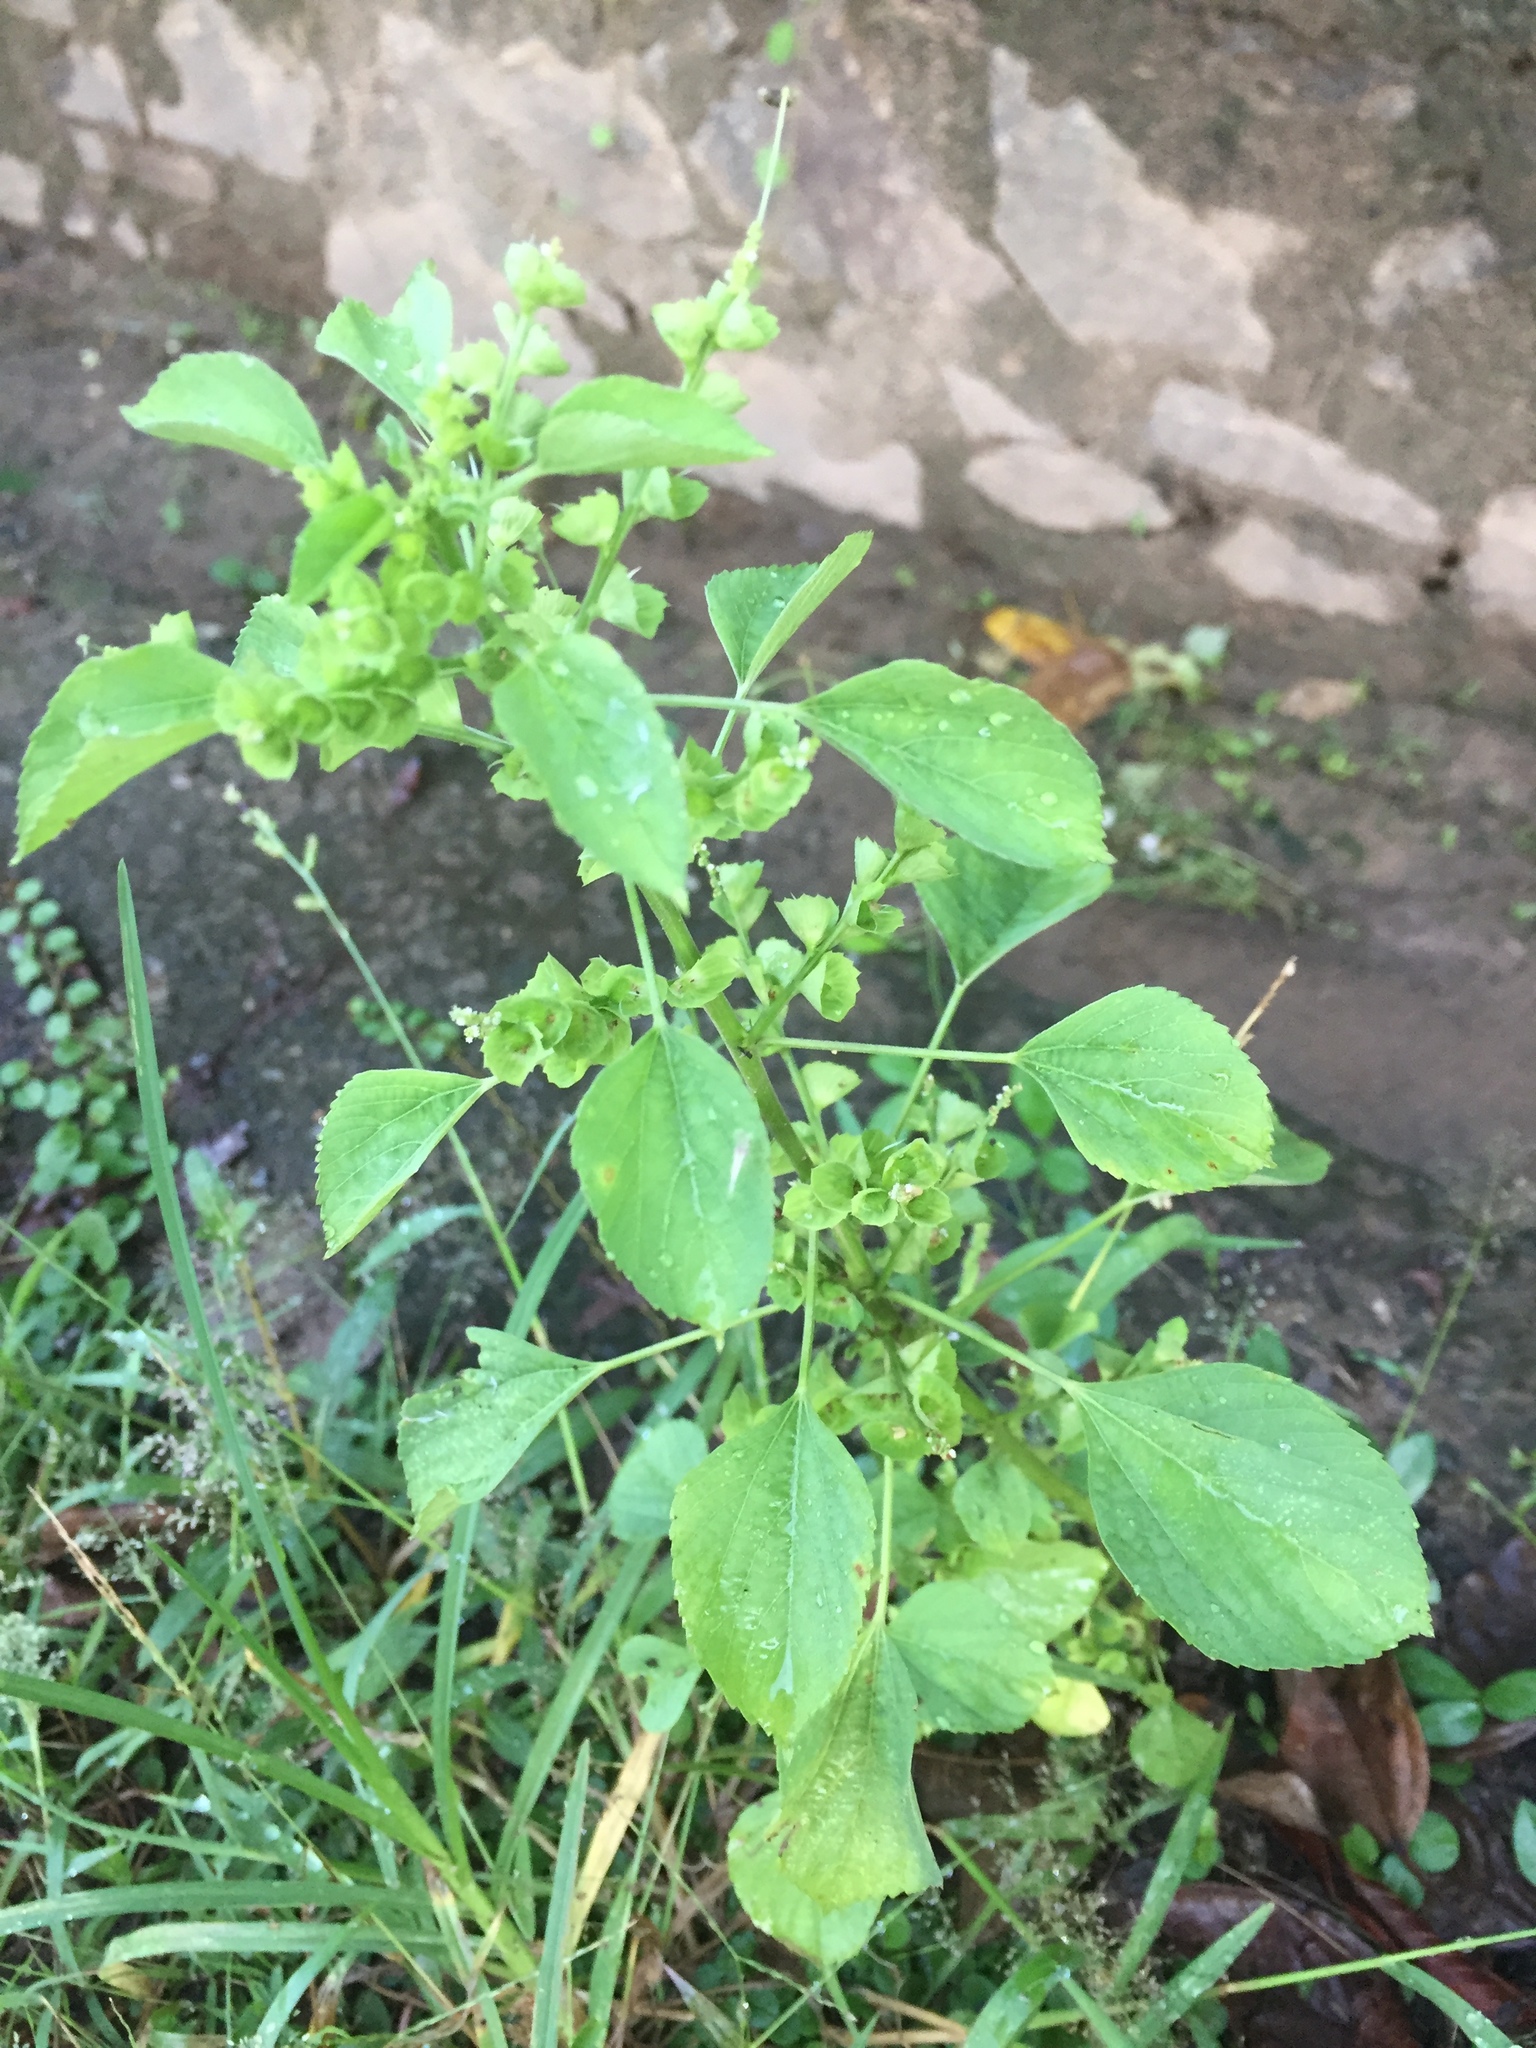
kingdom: Plantae
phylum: Tracheophyta
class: Magnoliopsida
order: Malpighiales
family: Euphorbiaceae
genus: Acalypha
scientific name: Acalypha indica
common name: Indian acalypha
